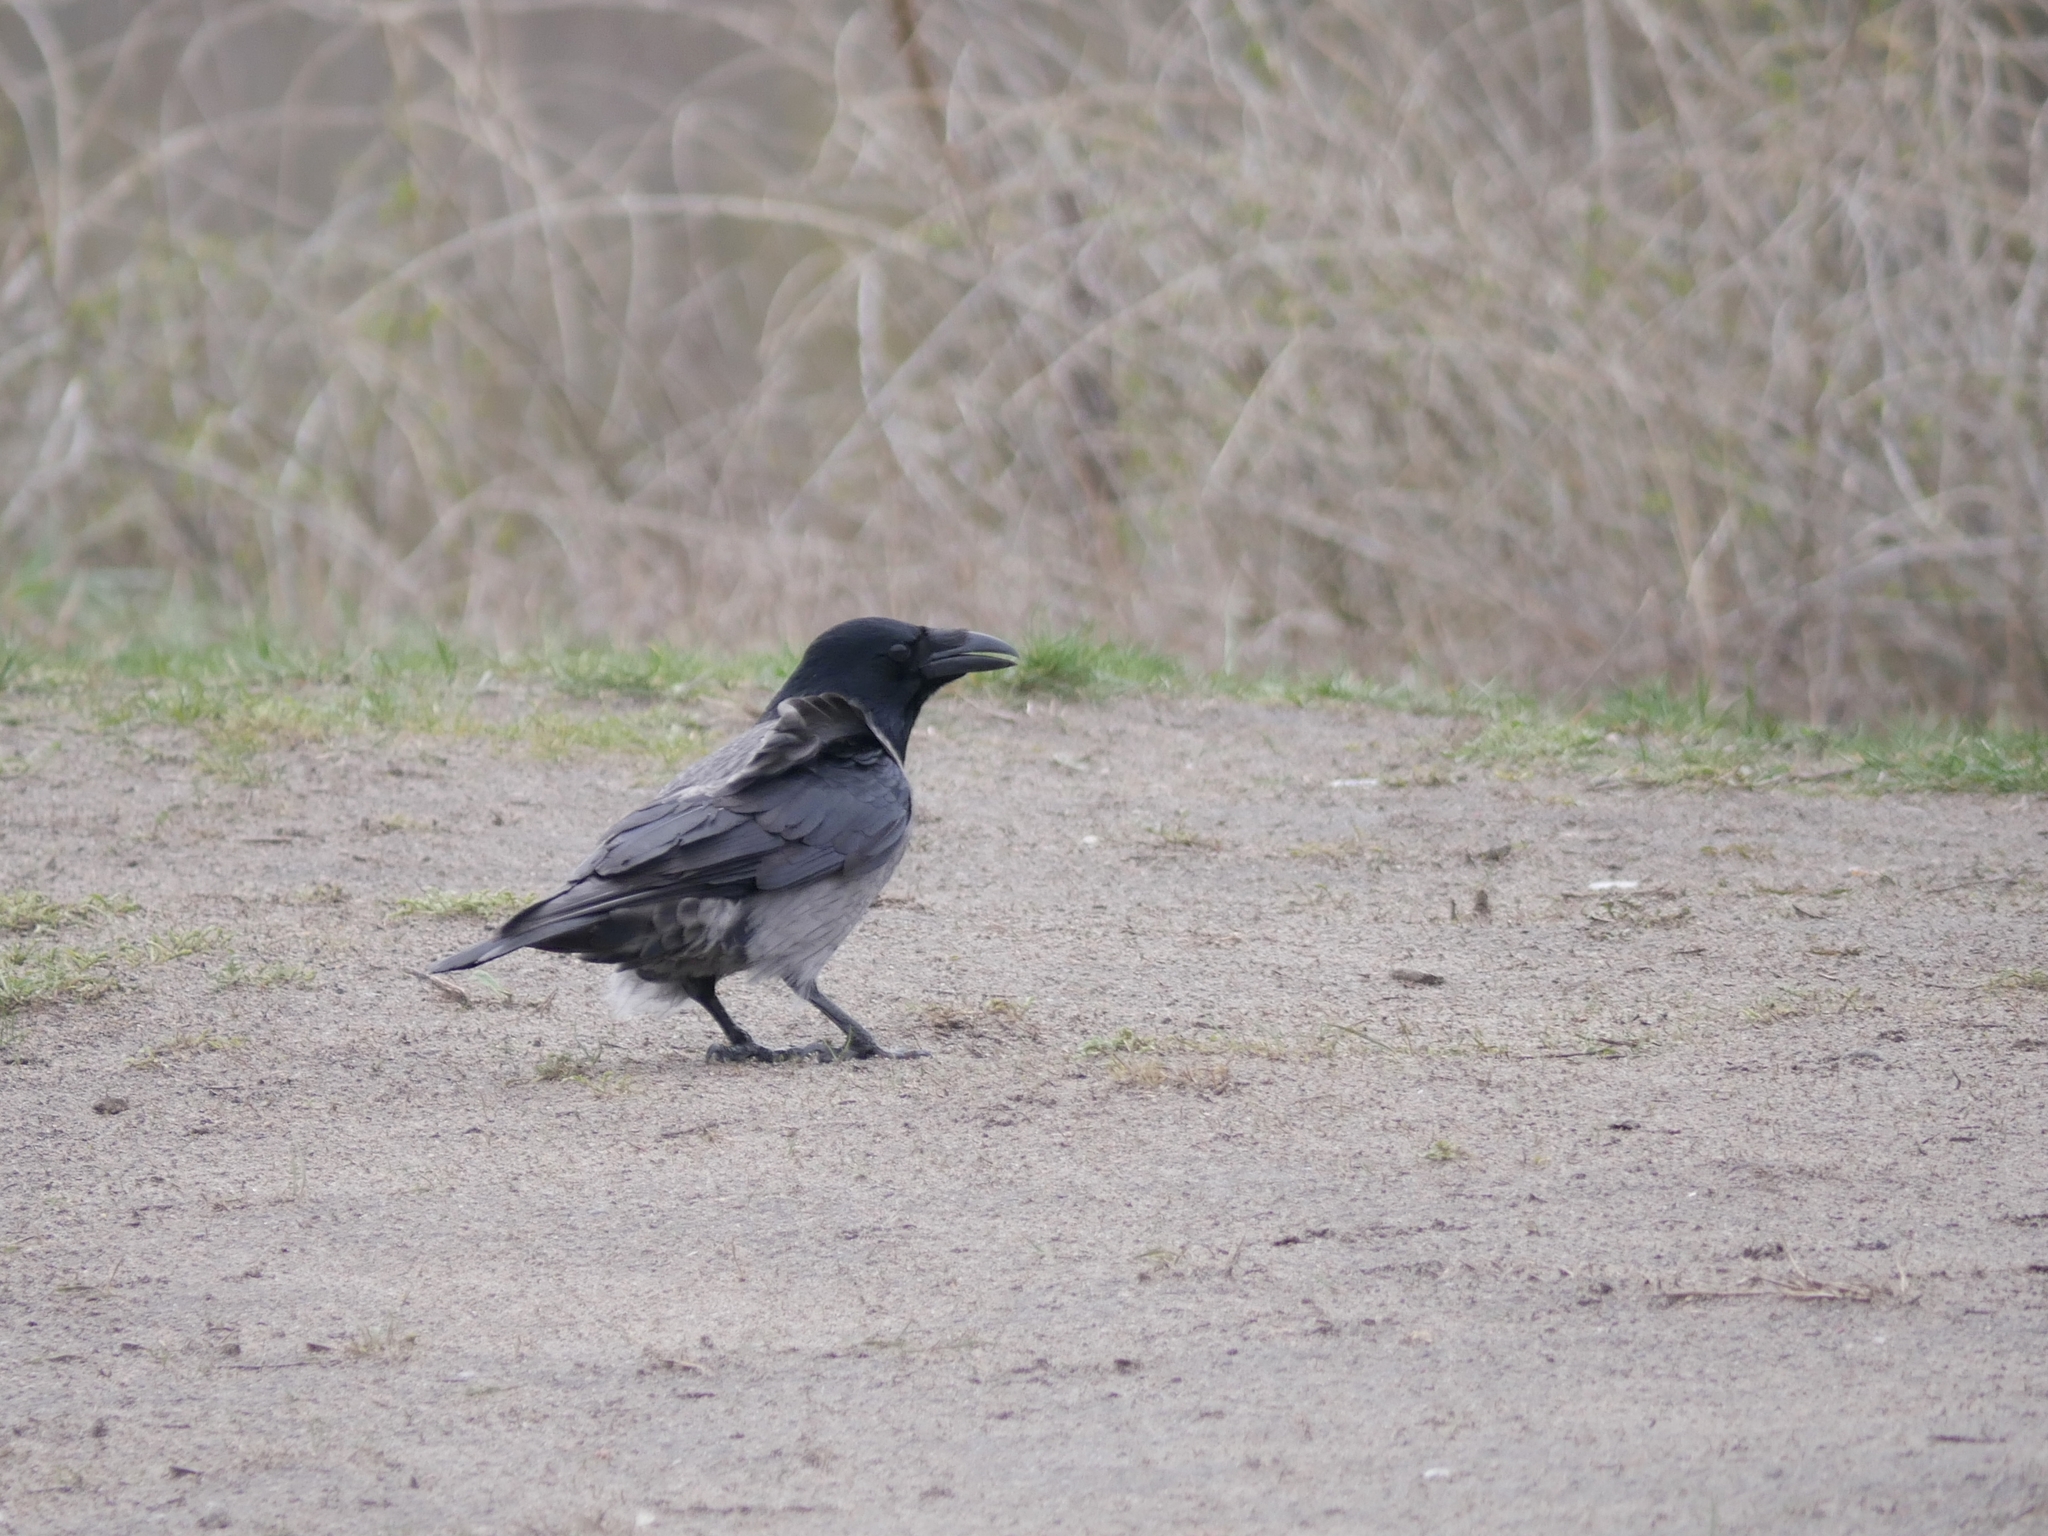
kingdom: Animalia
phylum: Chordata
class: Aves
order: Passeriformes
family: Corvidae
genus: Corvus
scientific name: Corvus
